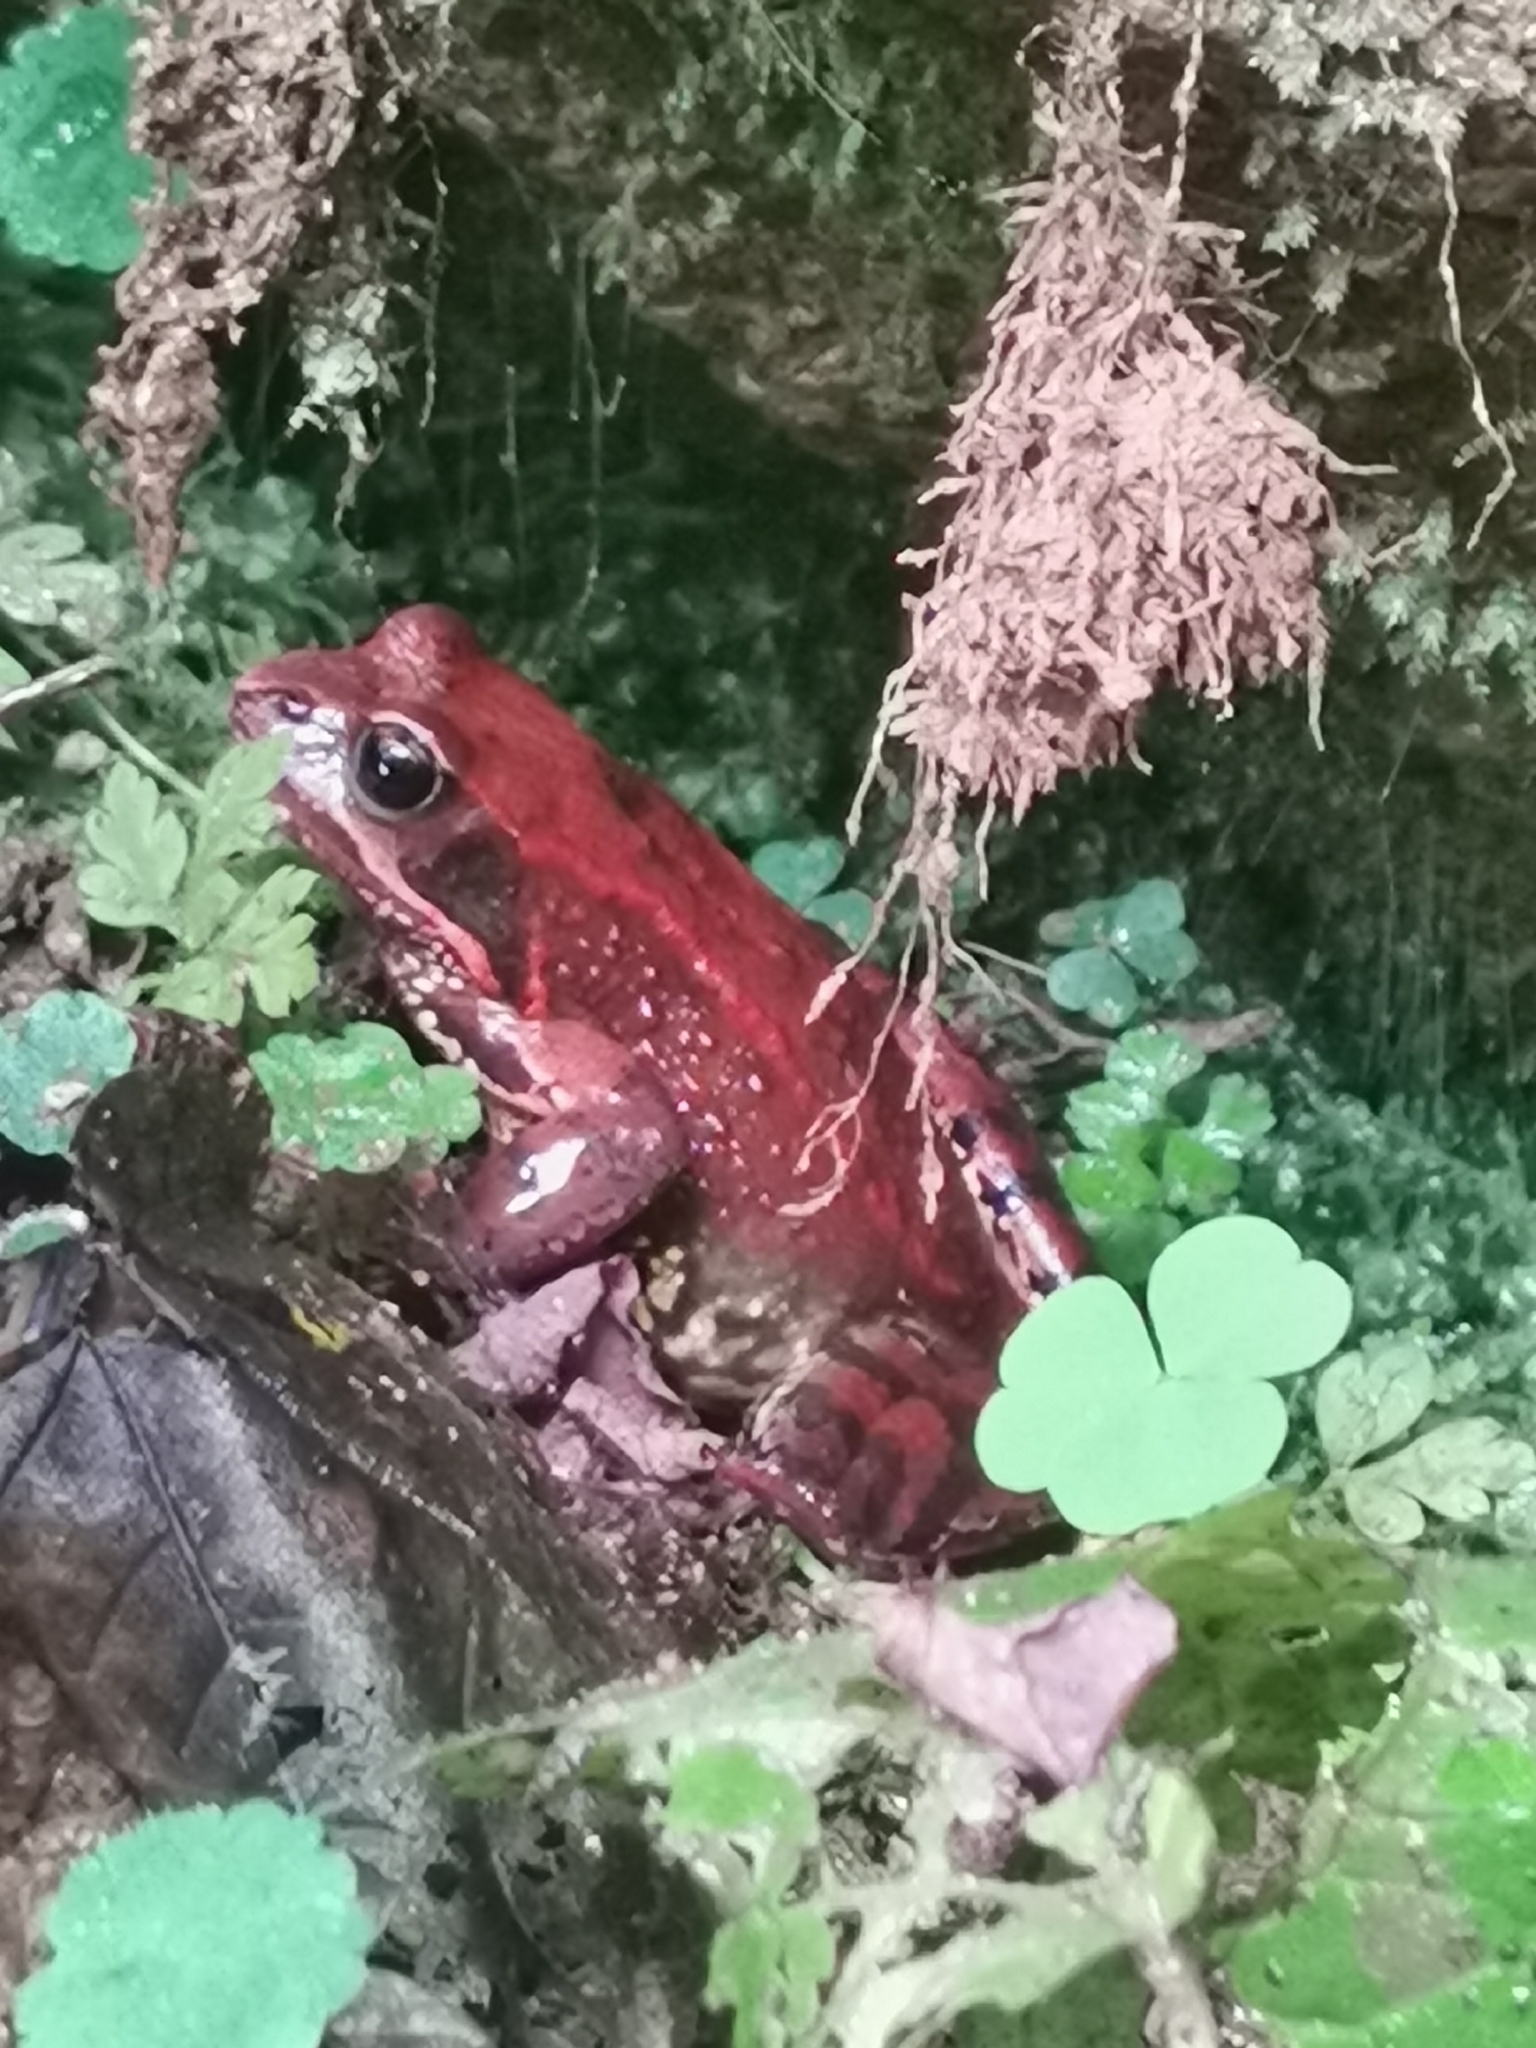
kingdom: Animalia
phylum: Chordata
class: Amphibia
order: Anura
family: Ranidae
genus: Rana
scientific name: Rana temporaria
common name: Common frog
